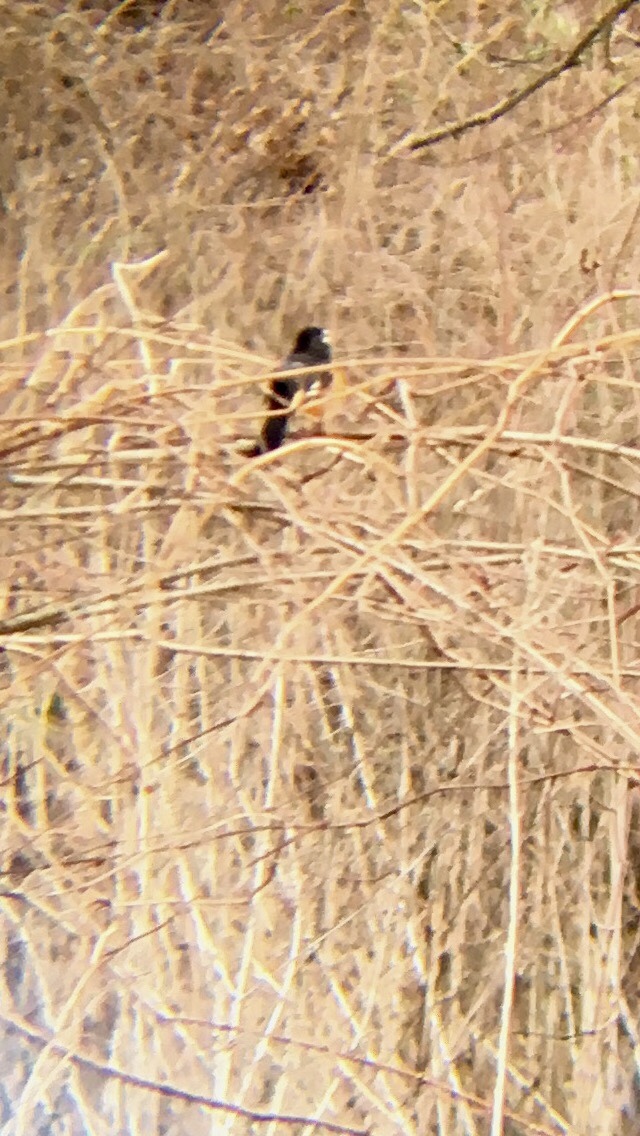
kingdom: Animalia
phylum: Chordata
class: Aves
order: Passeriformes
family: Passerellidae
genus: Pipilo
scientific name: Pipilo erythrophthalmus
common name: Eastern towhee
